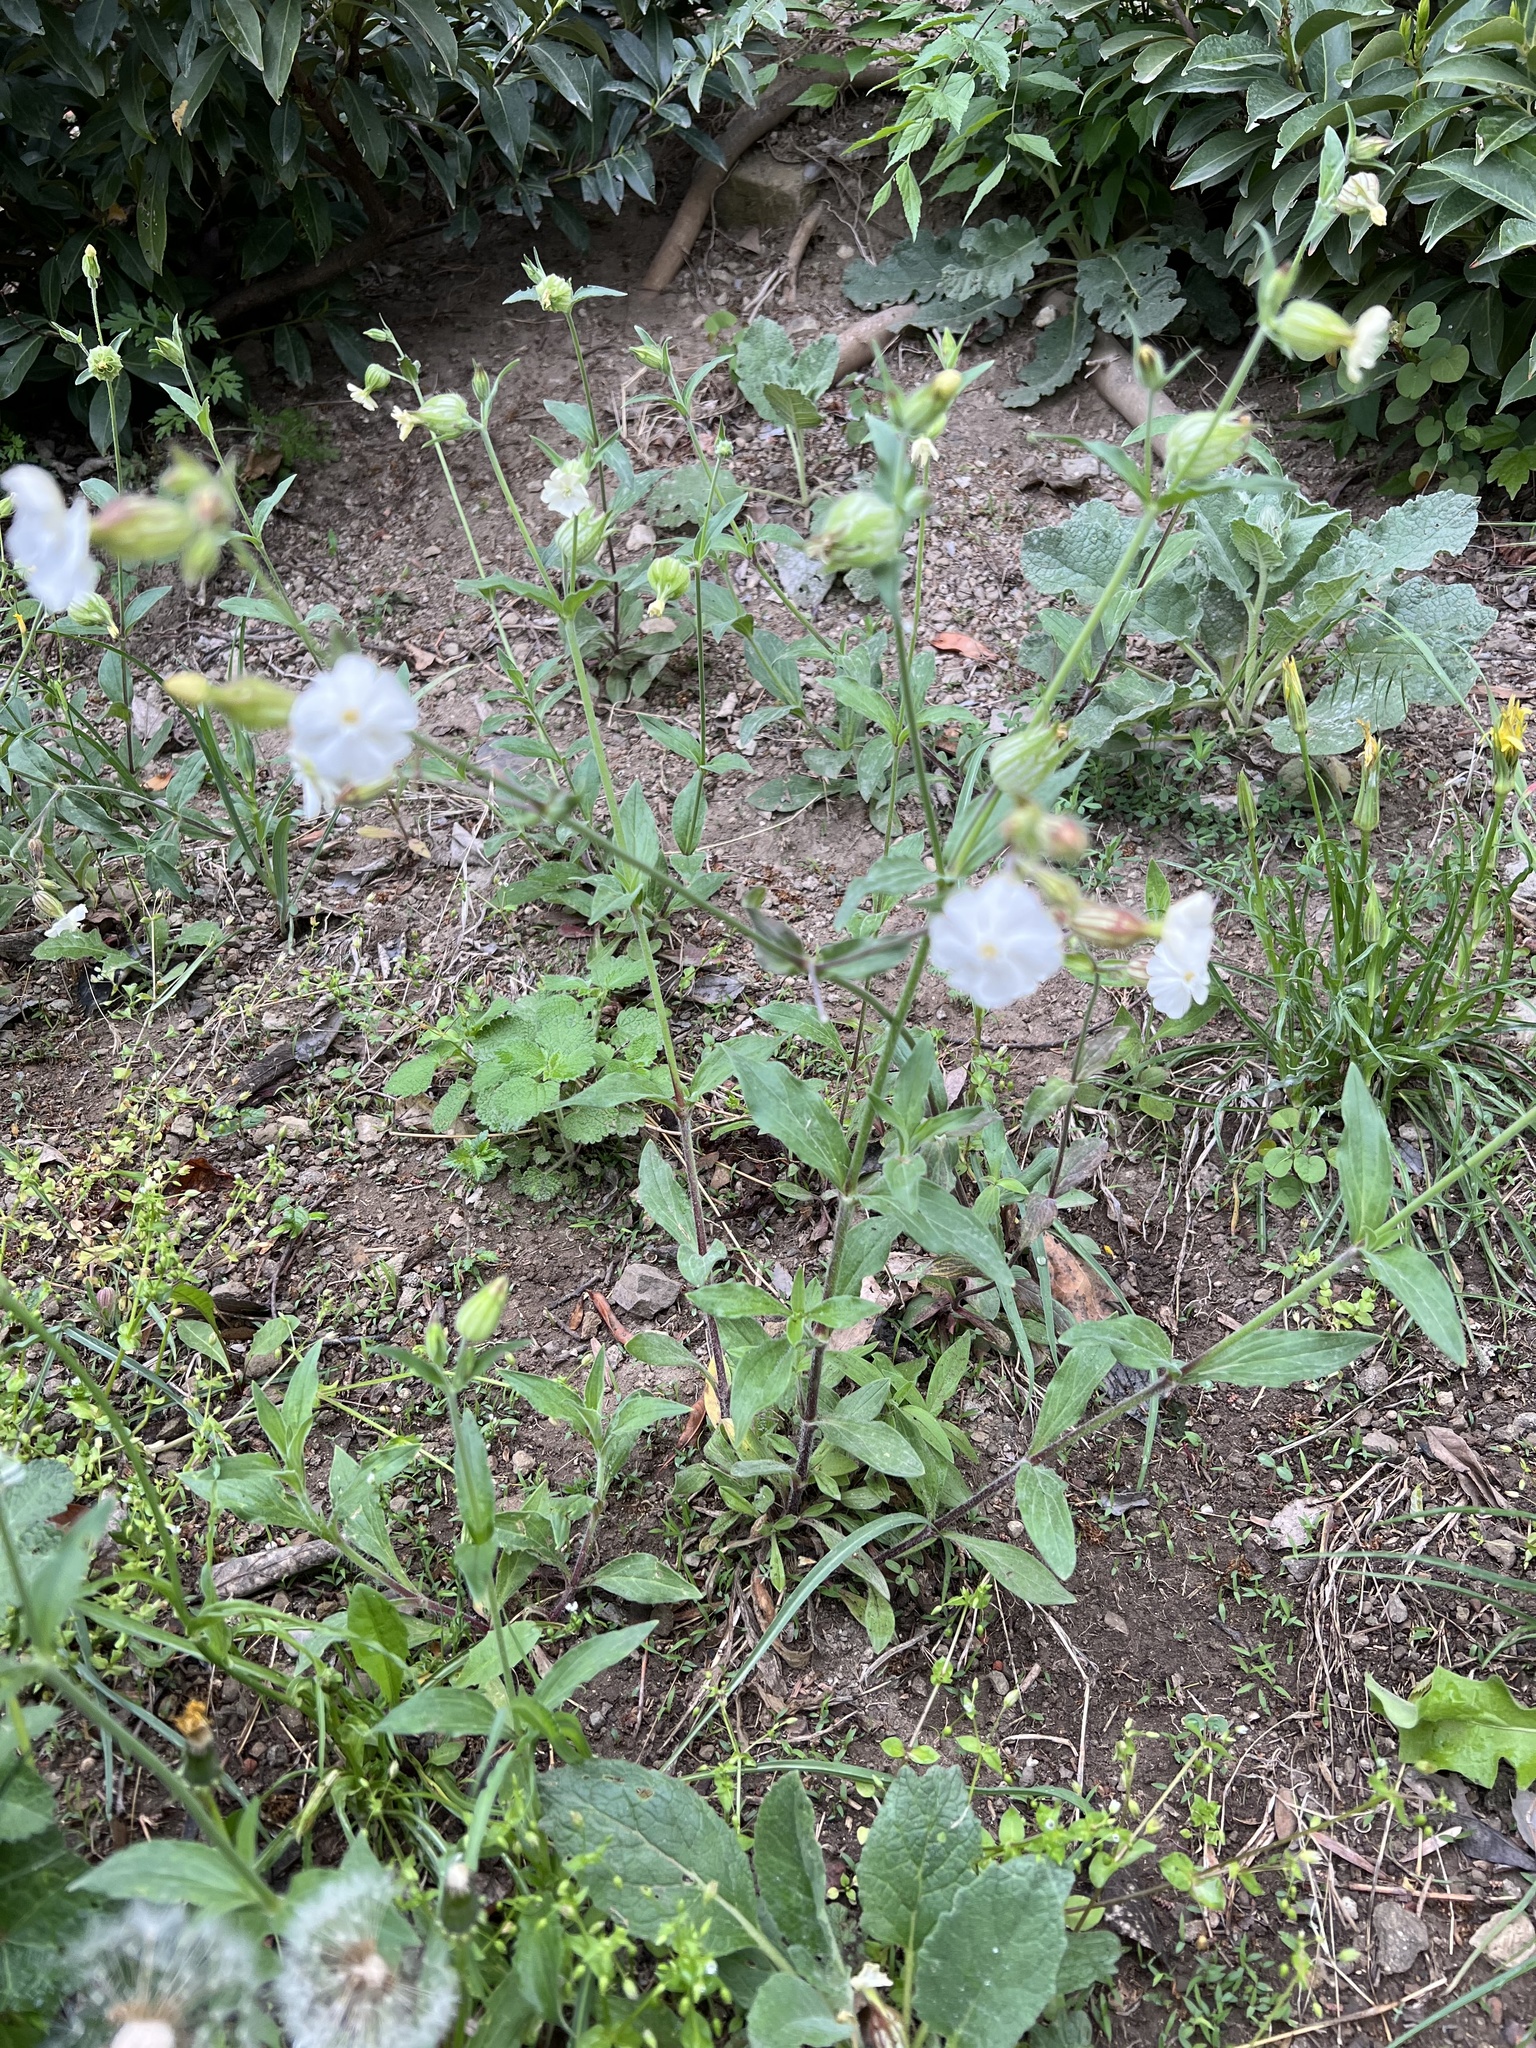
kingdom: Plantae
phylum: Tracheophyta
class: Magnoliopsida
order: Caryophyllales
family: Caryophyllaceae
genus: Silene
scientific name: Silene latifolia
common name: White campion
